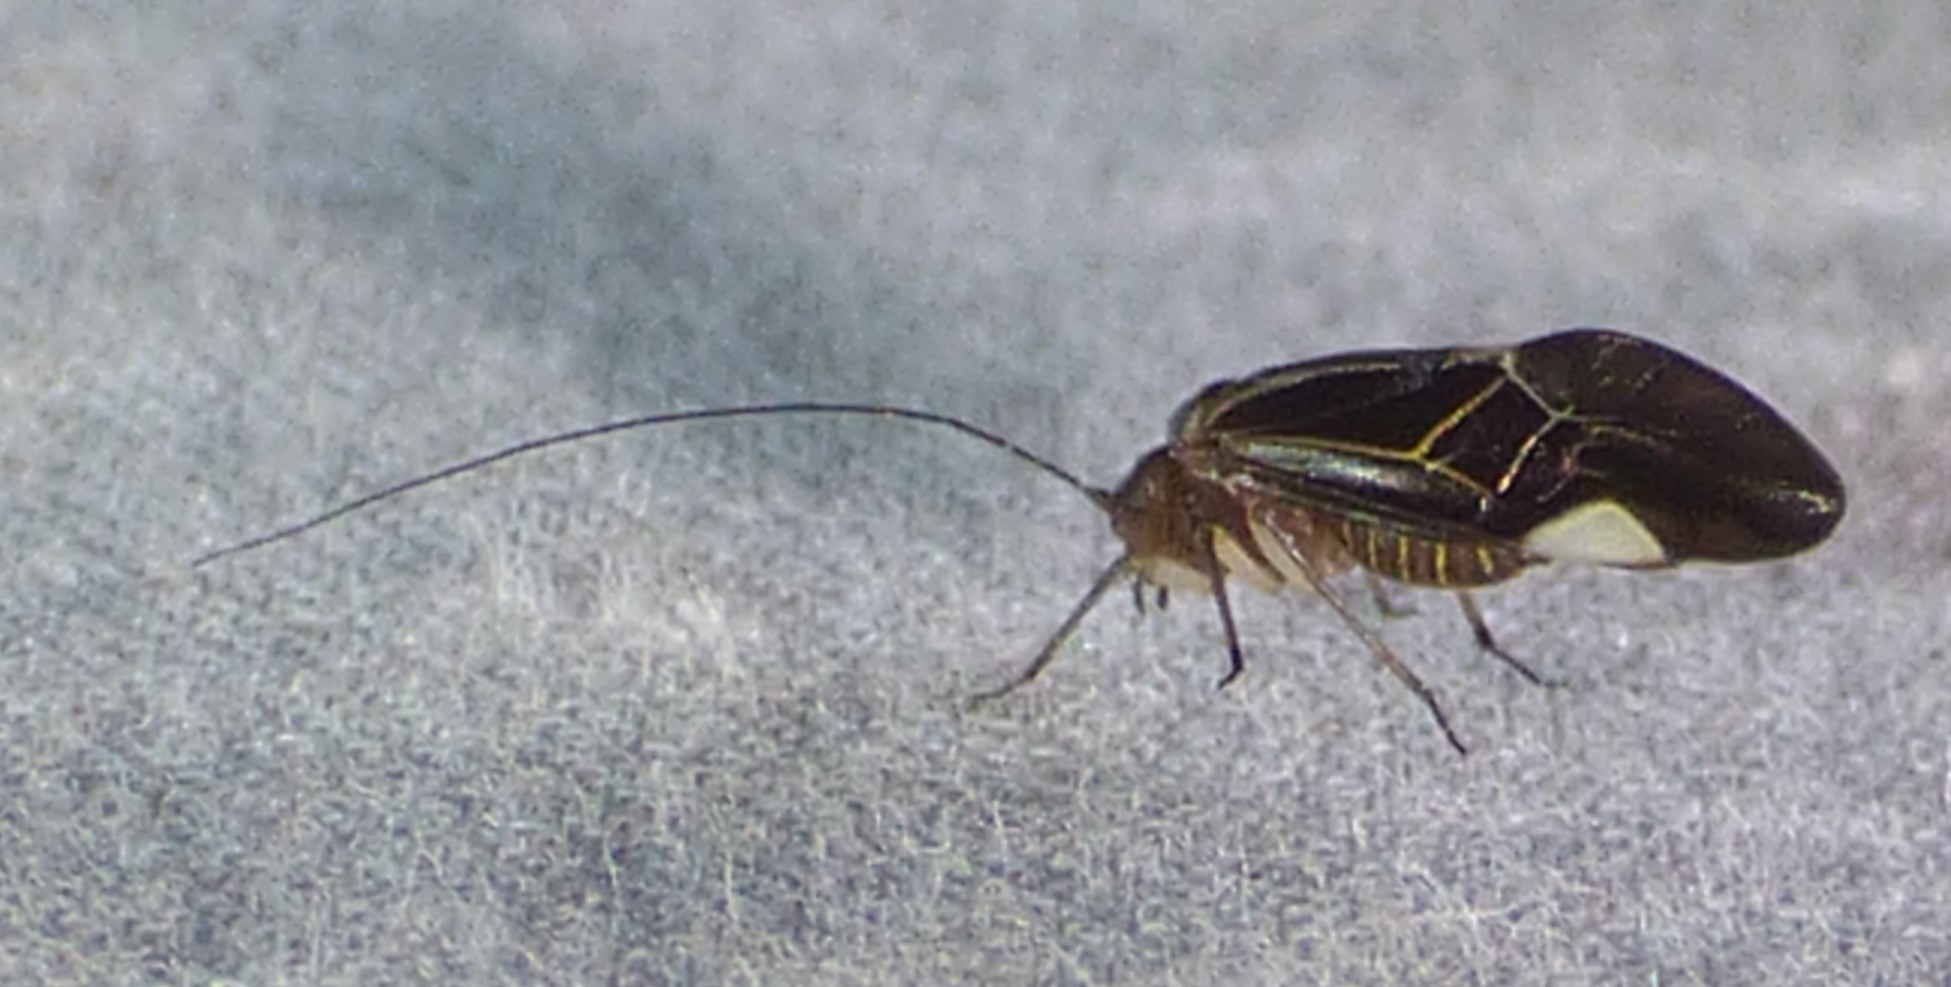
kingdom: Animalia
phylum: Arthropoda
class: Insecta
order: Psocodea
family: Psocidae
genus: Cerastipsocus
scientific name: Cerastipsocus venosus
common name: Tree cattle
